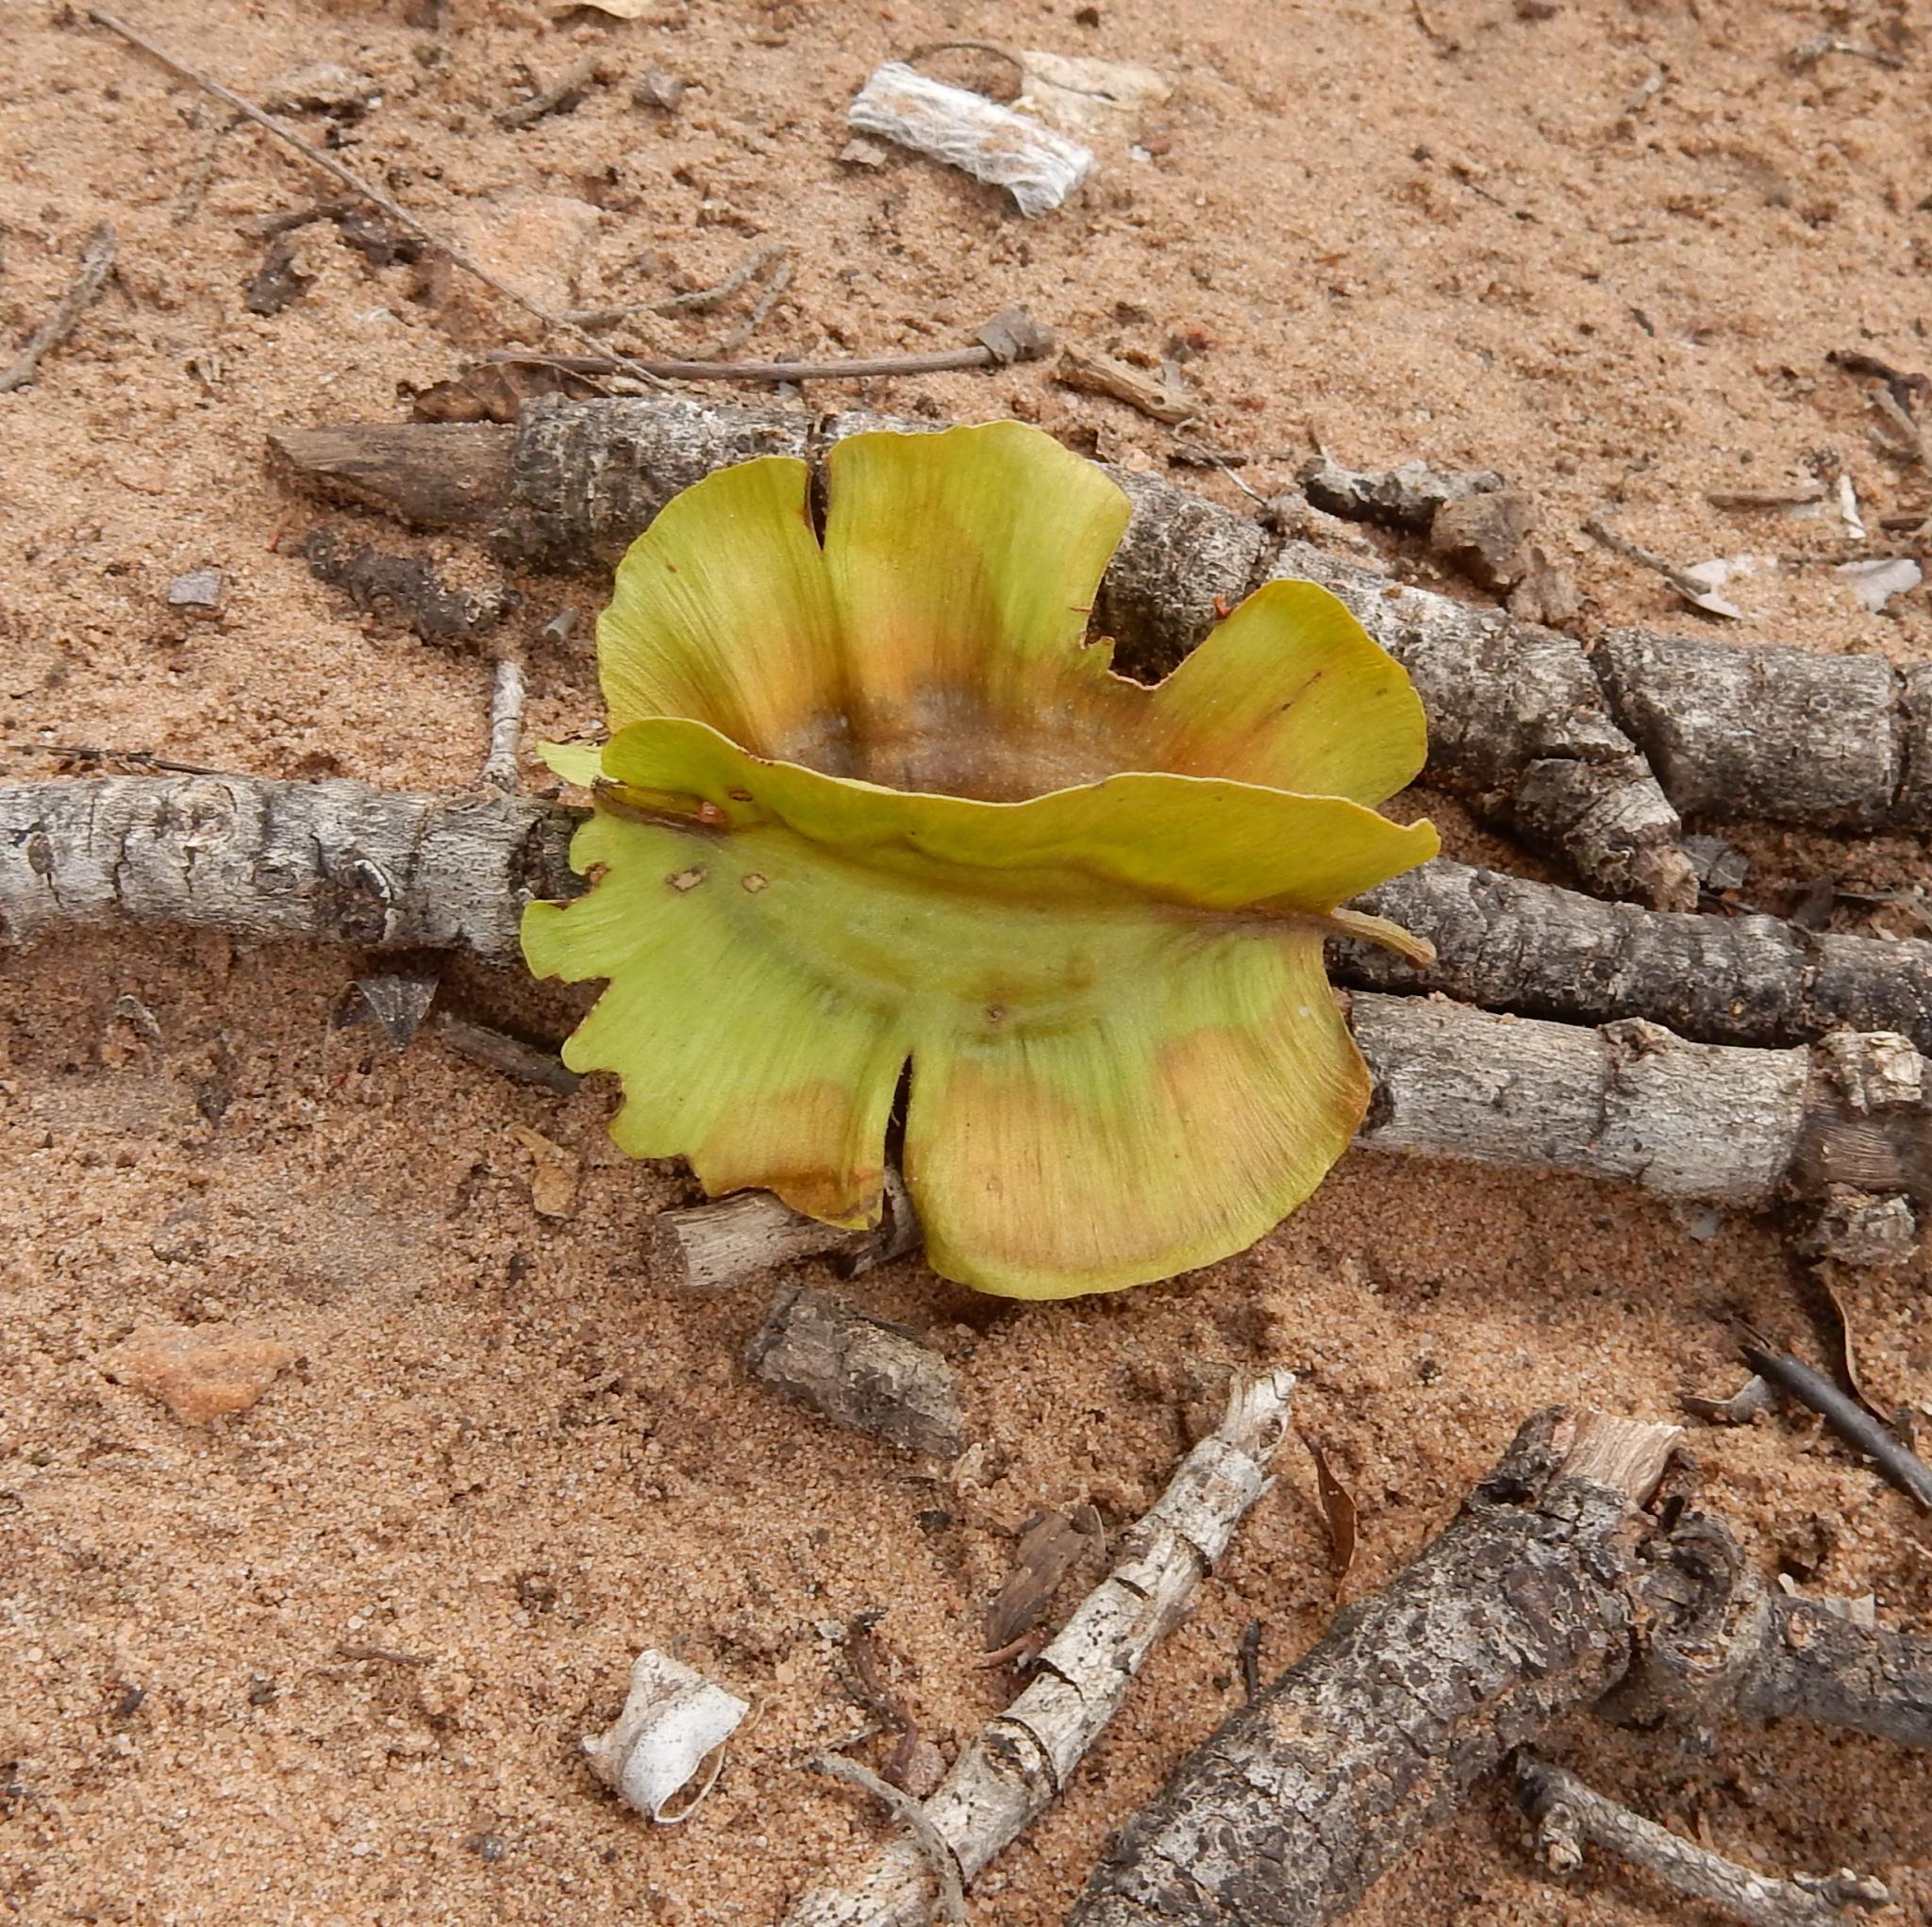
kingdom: Plantae
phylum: Tracheophyta
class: Magnoliopsida
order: Myrtales
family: Combretaceae
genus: Combretum
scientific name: Combretum zeyheri
